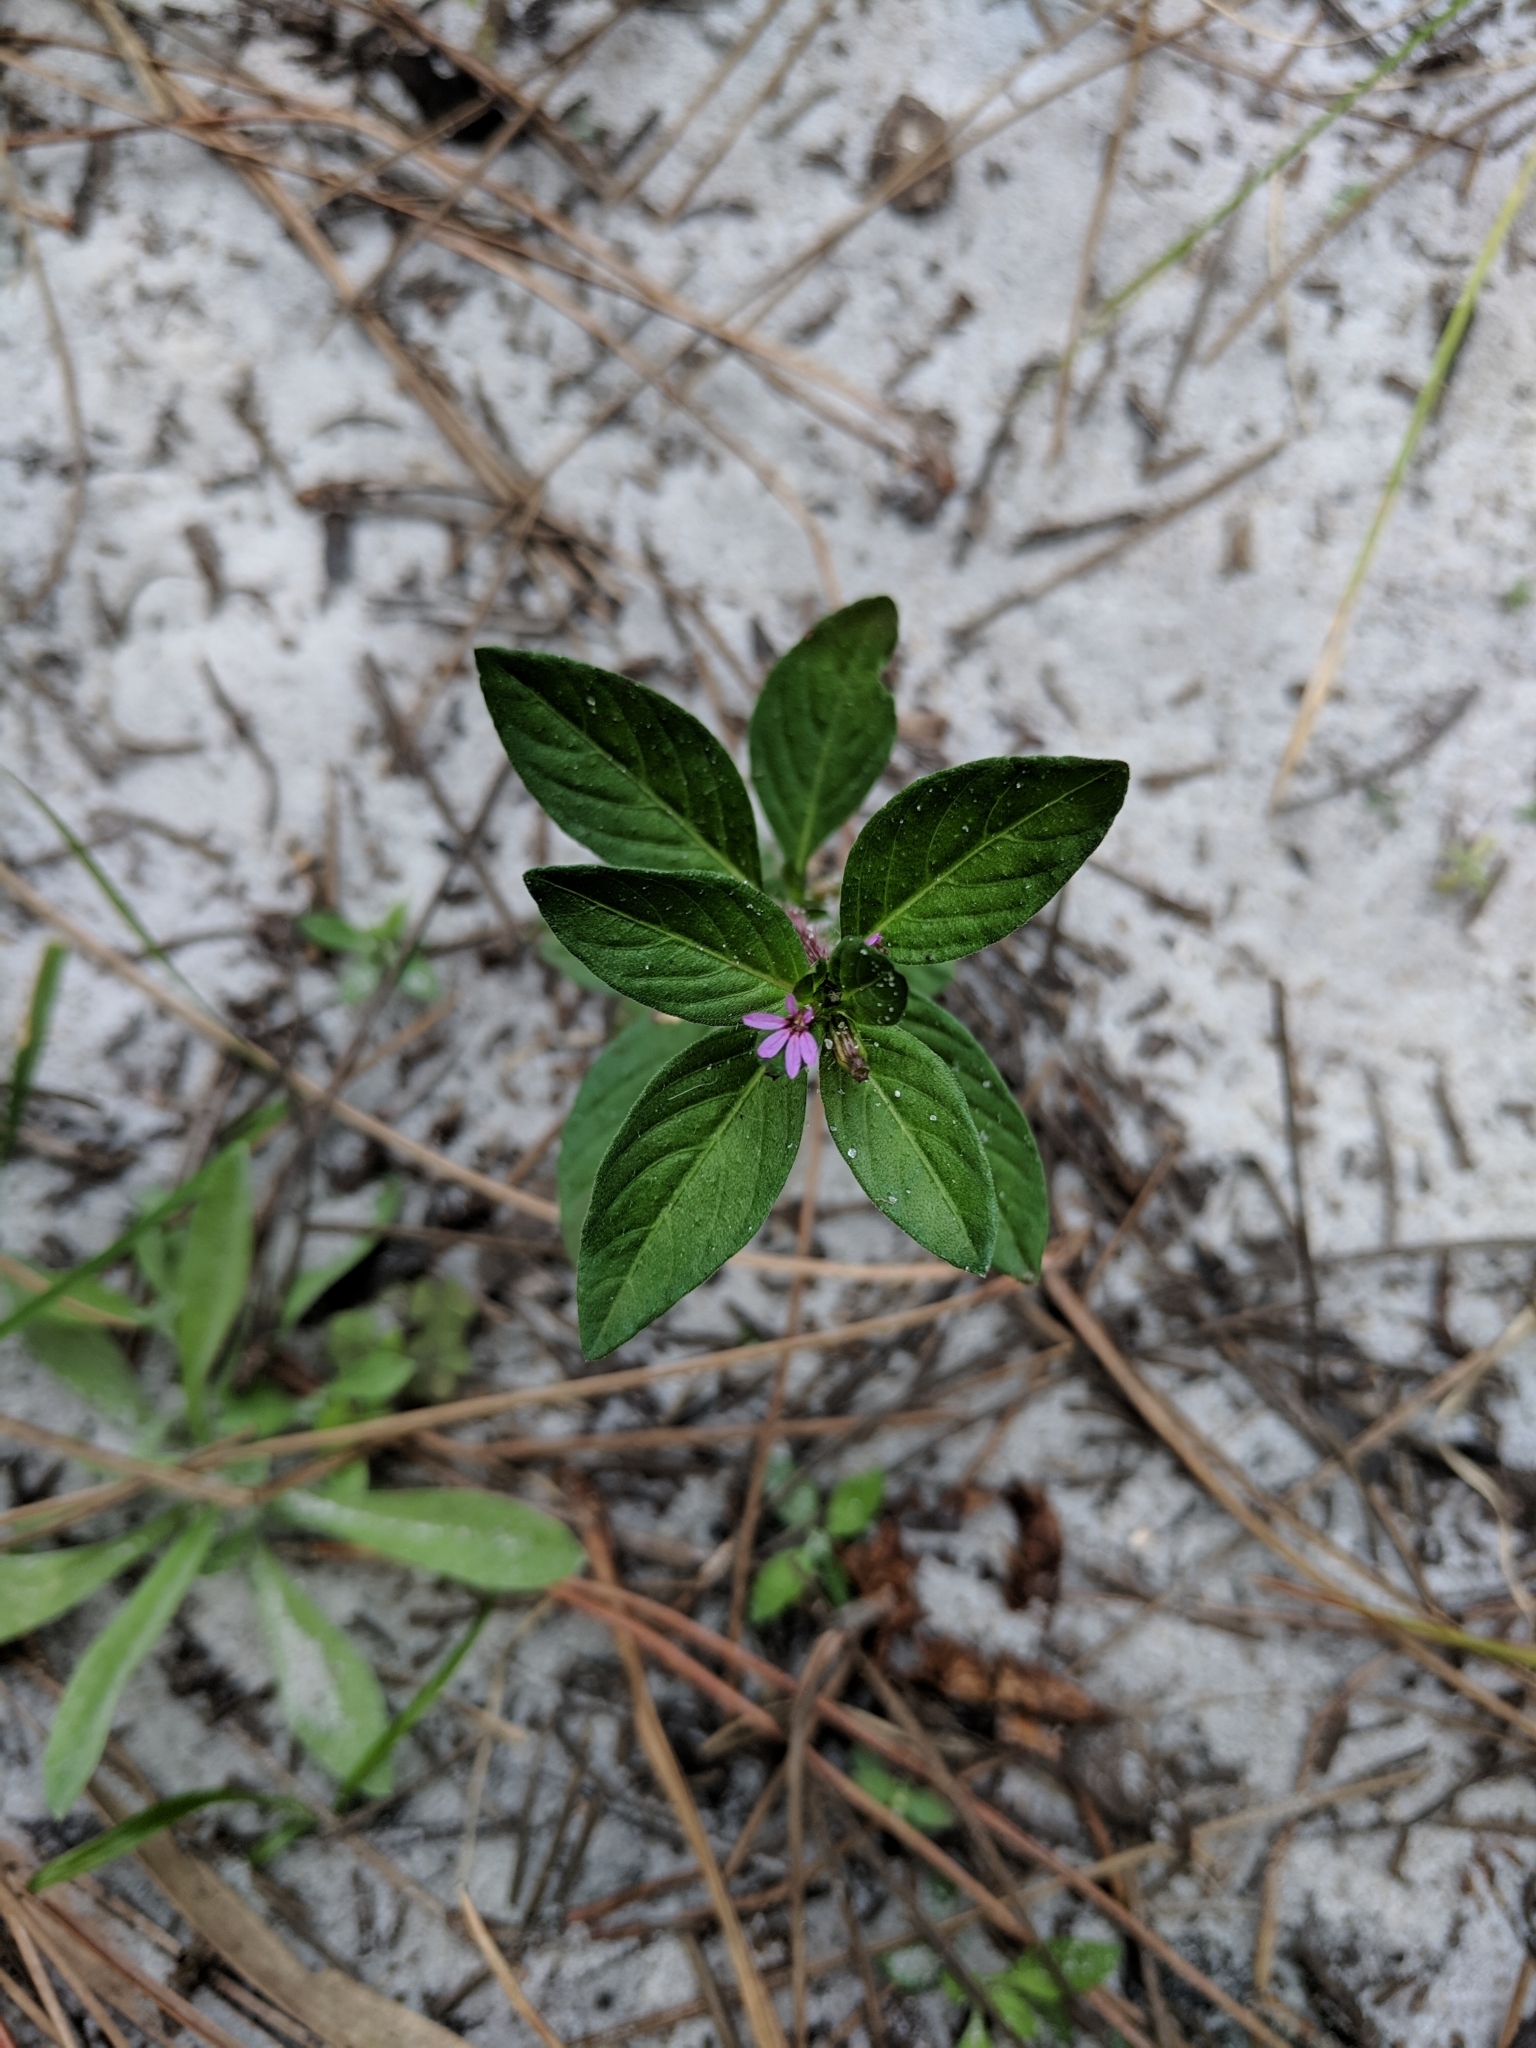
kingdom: Plantae
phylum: Tracheophyta
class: Magnoliopsida
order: Myrtales
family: Lythraceae
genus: Cuphea
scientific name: Cuphea carthagenensis
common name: Colombian waxweed
